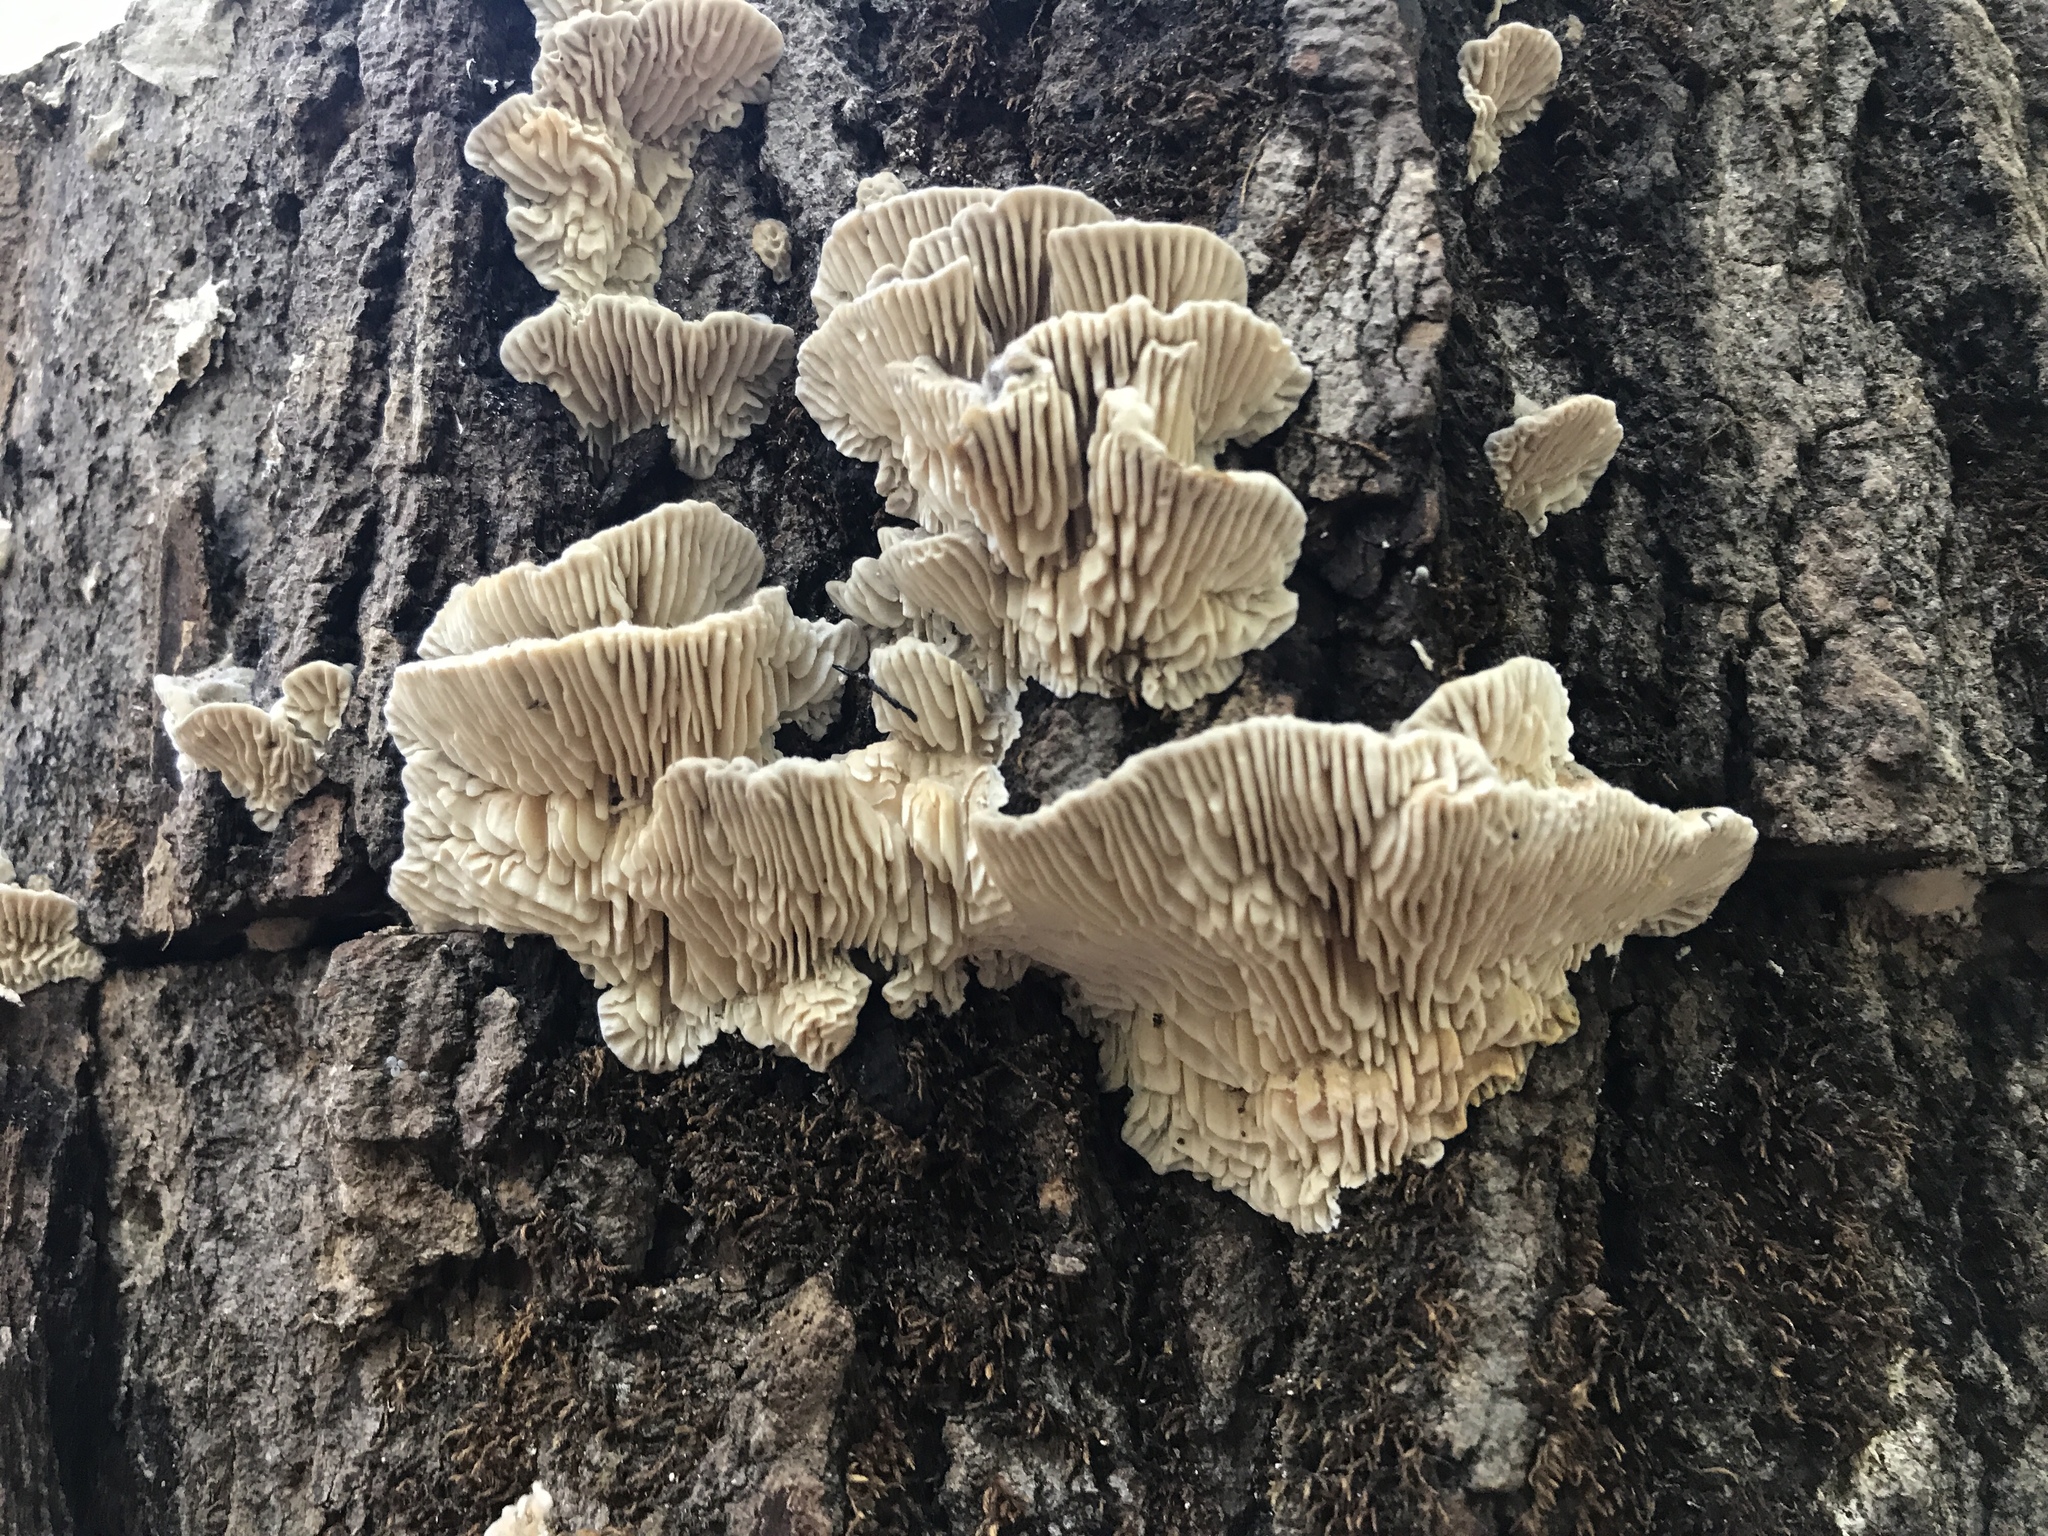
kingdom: Fungi
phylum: Basidiomycota
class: Agaricomycetes
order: Polyporales
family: Polyporaceae
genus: Lenzites
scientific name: Lenzites betulinus
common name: Birch mazegill
